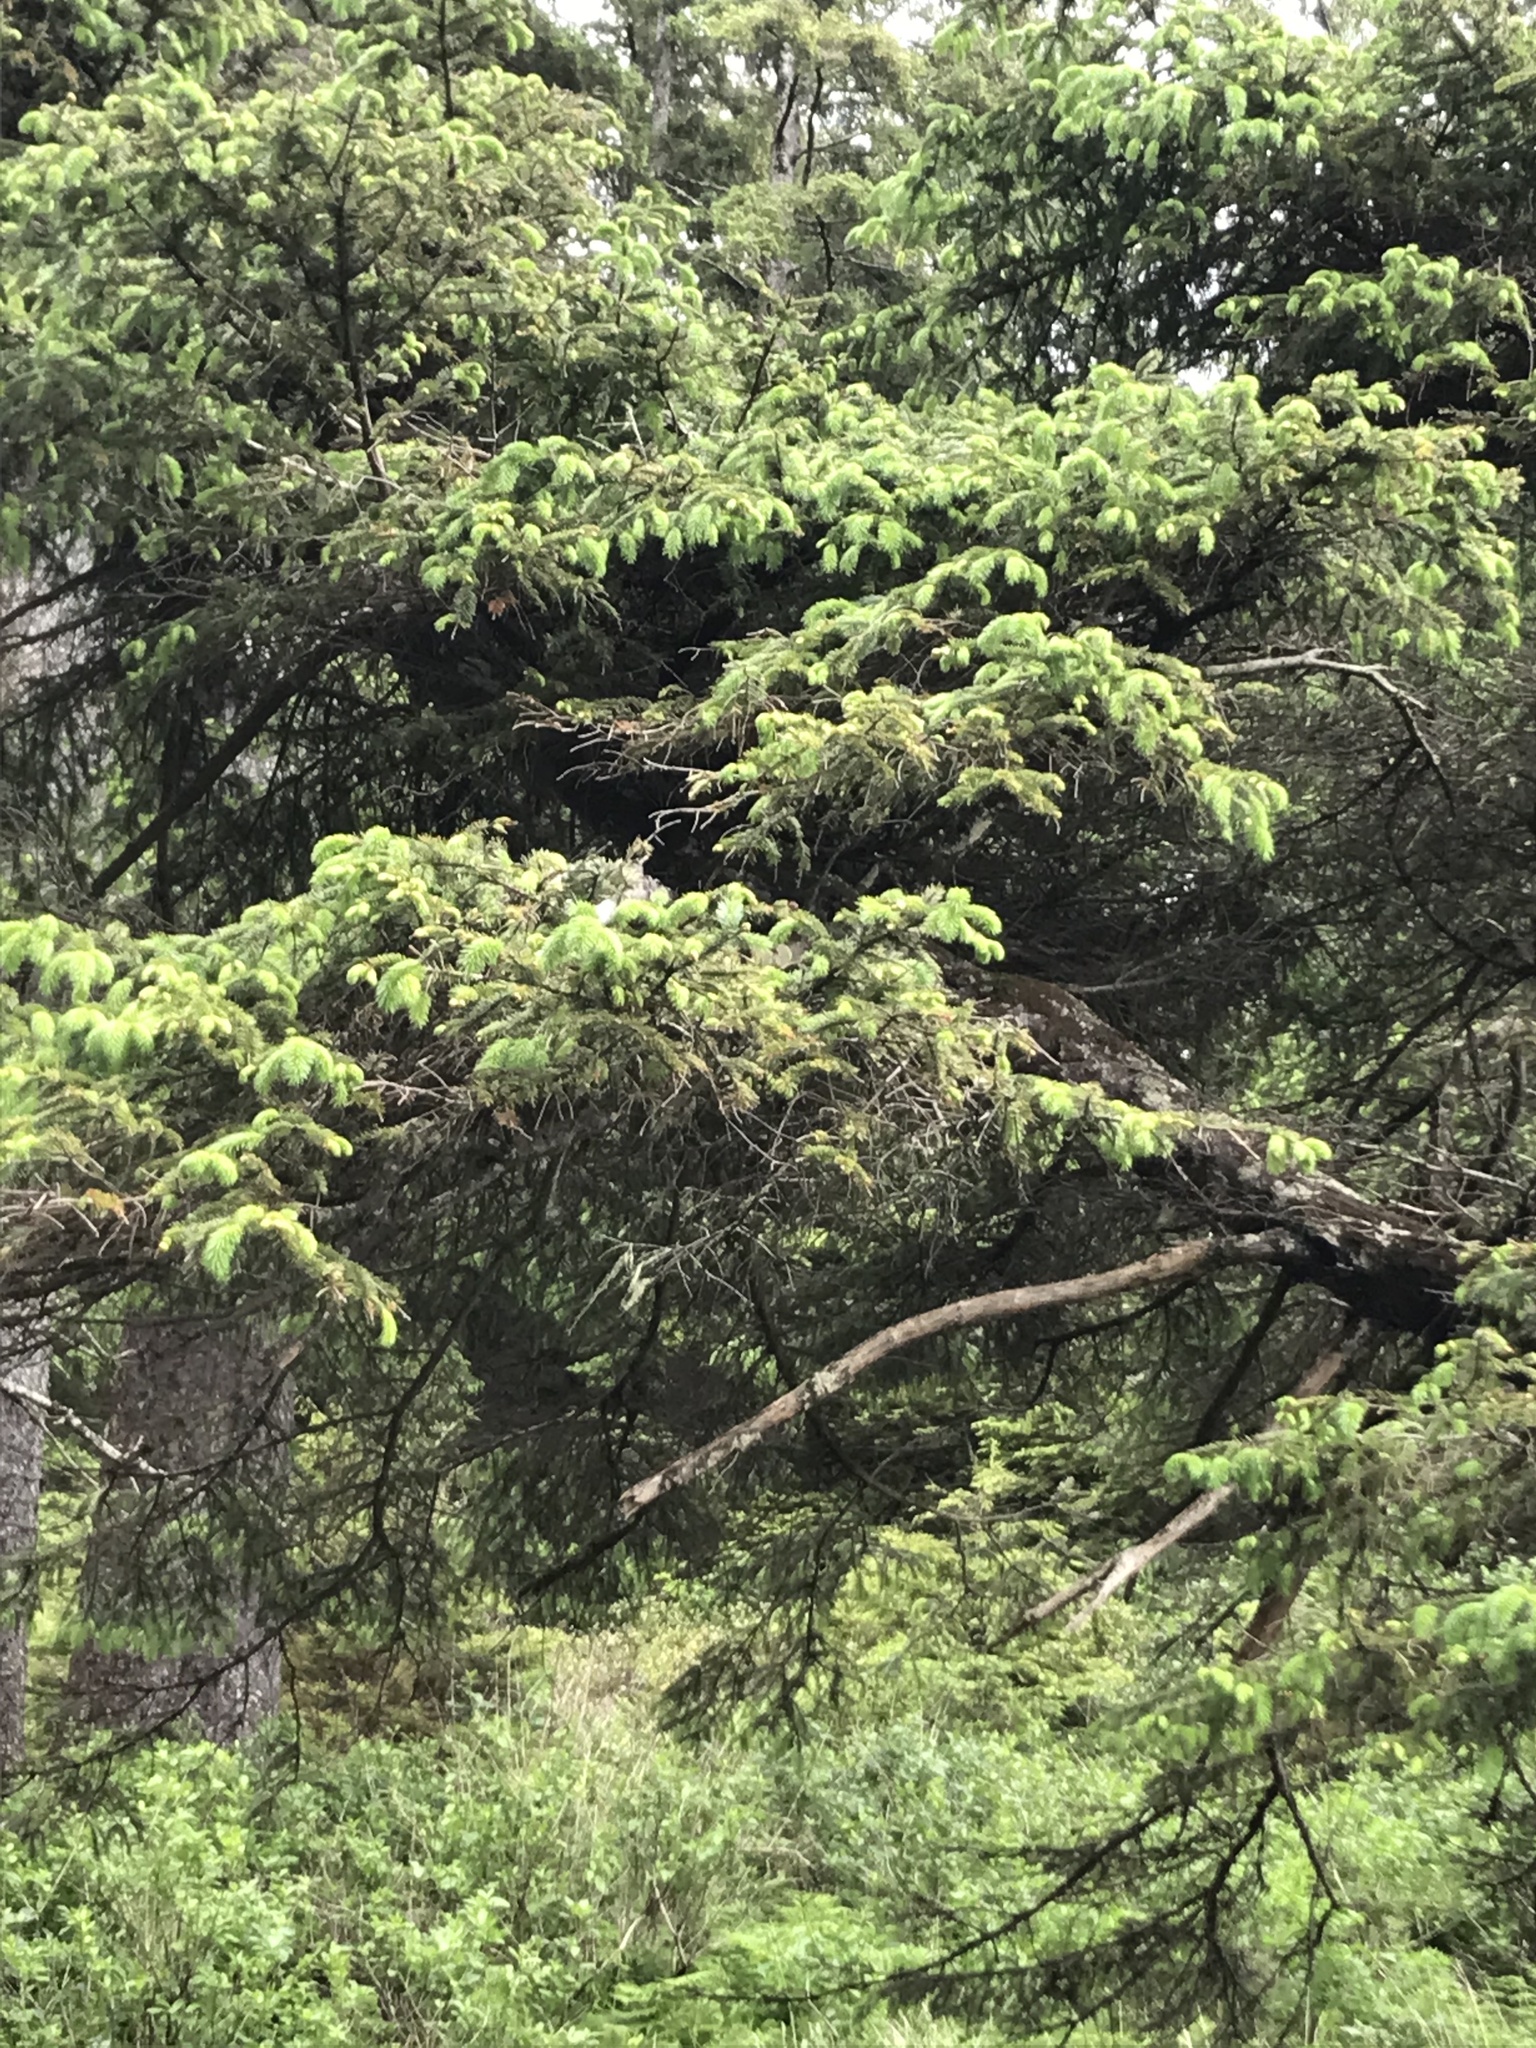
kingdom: Plantae
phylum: Tracheophyta
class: Pinopsida
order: Pinales
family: Pinaceae
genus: Picea
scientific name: Picea sitchensis
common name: Sitka spruce
